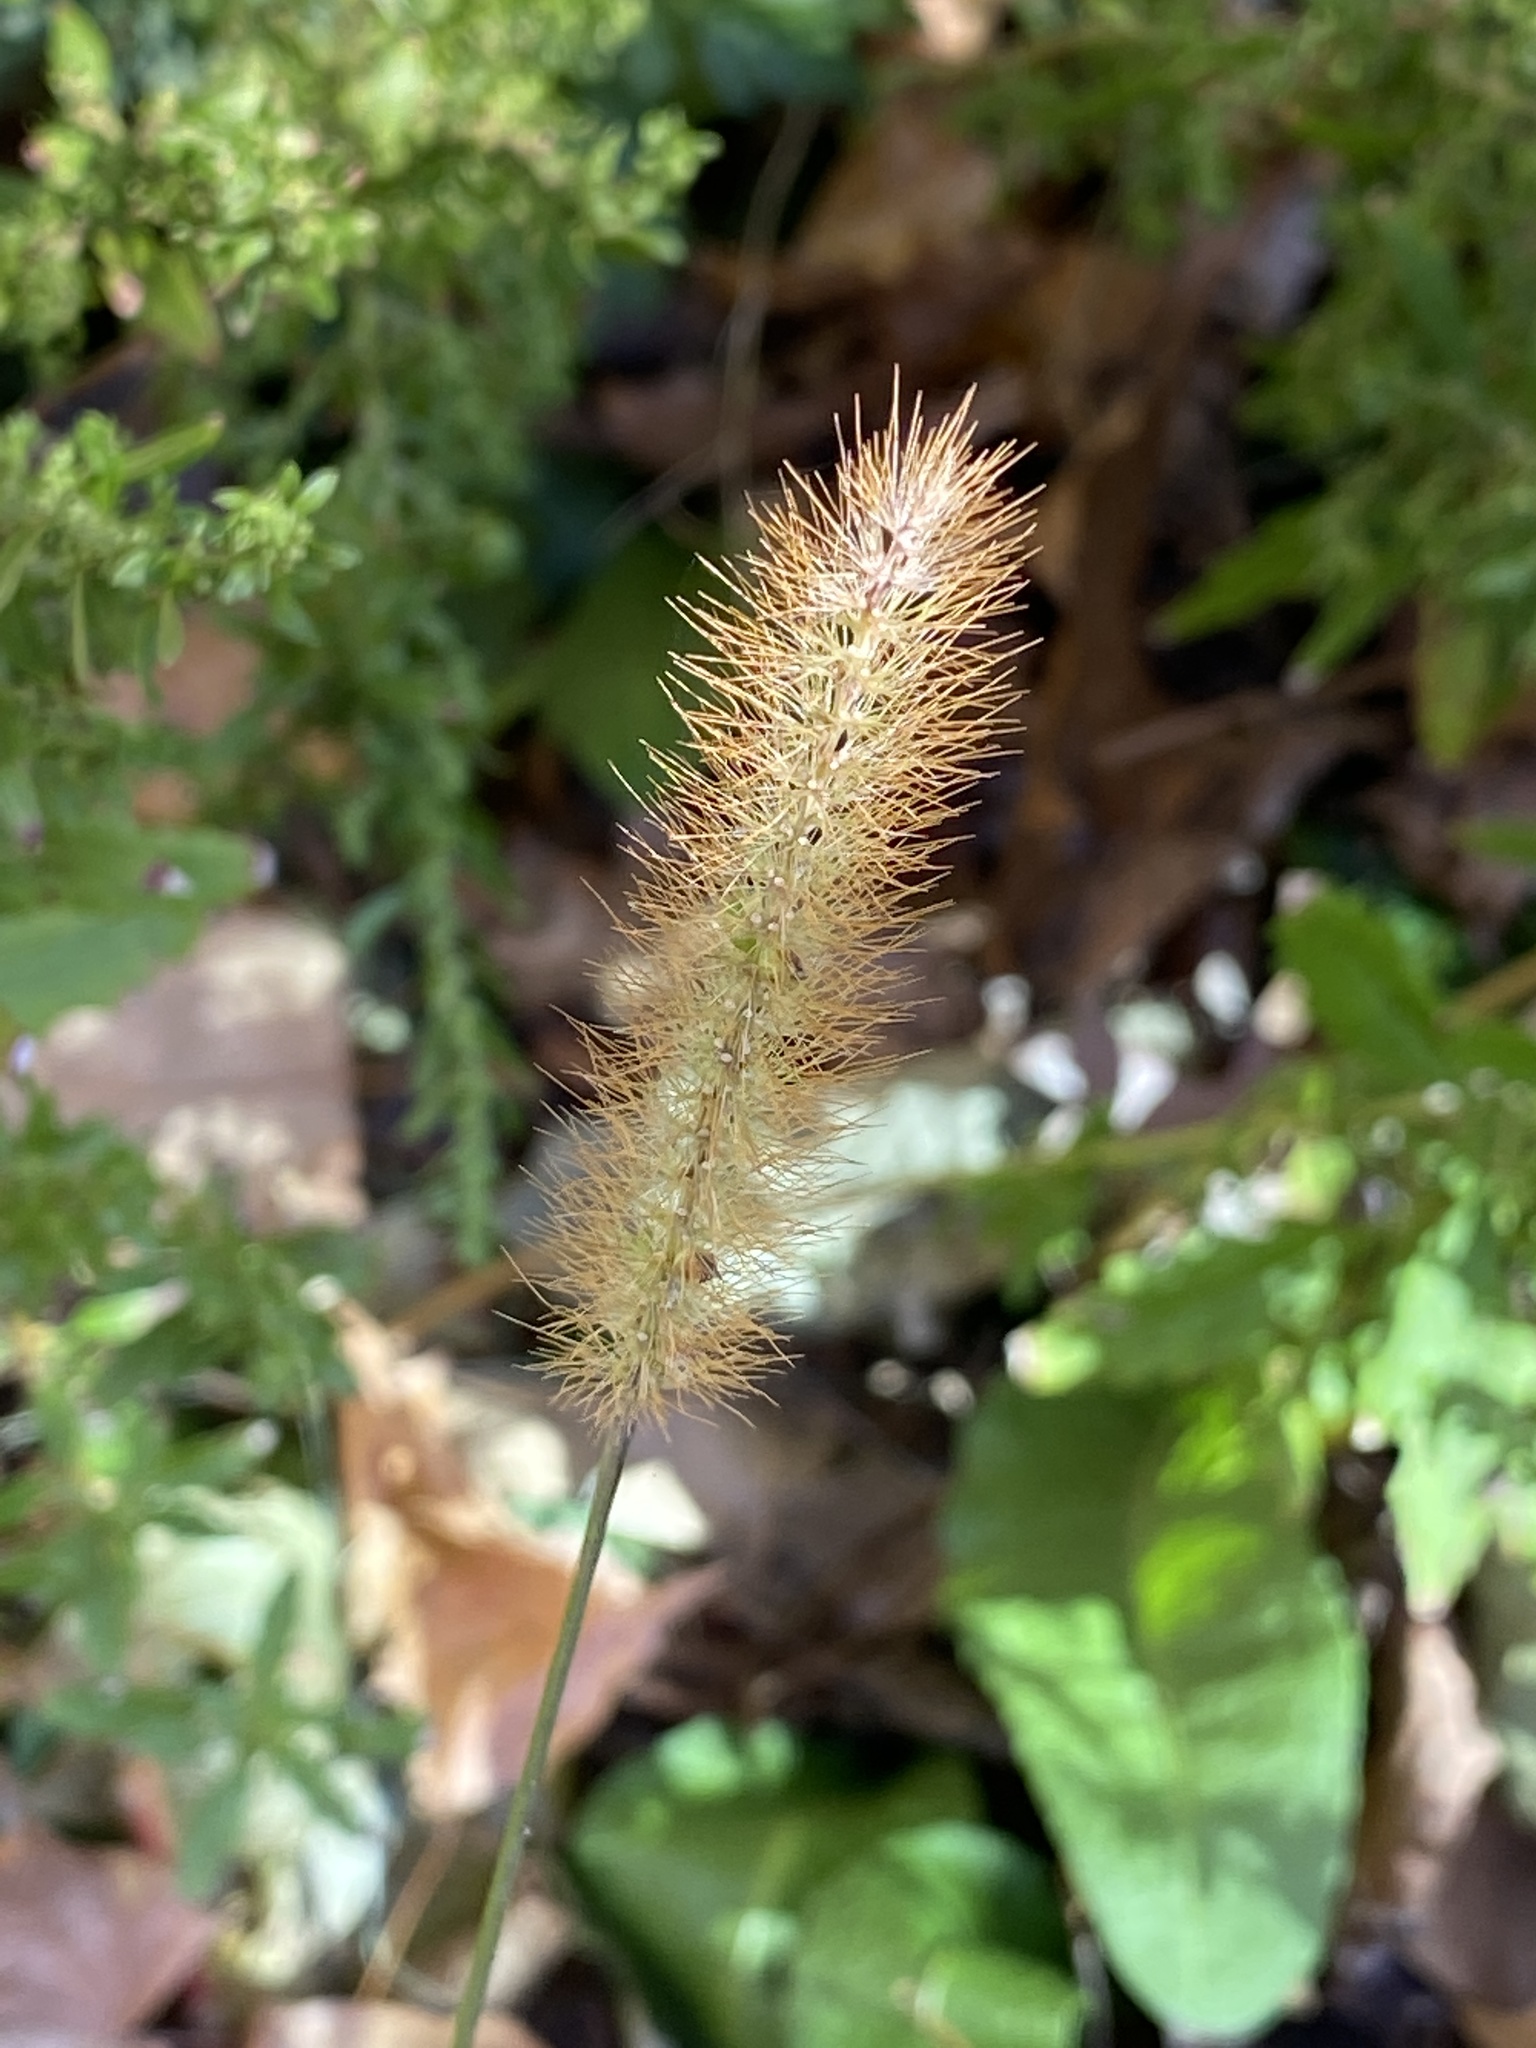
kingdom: Plantae
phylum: Tracheophyta
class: Liliopsida
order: Poales
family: Poaceae
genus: Setaria
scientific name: Setaria pumila
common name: Yellow bristle-grass
